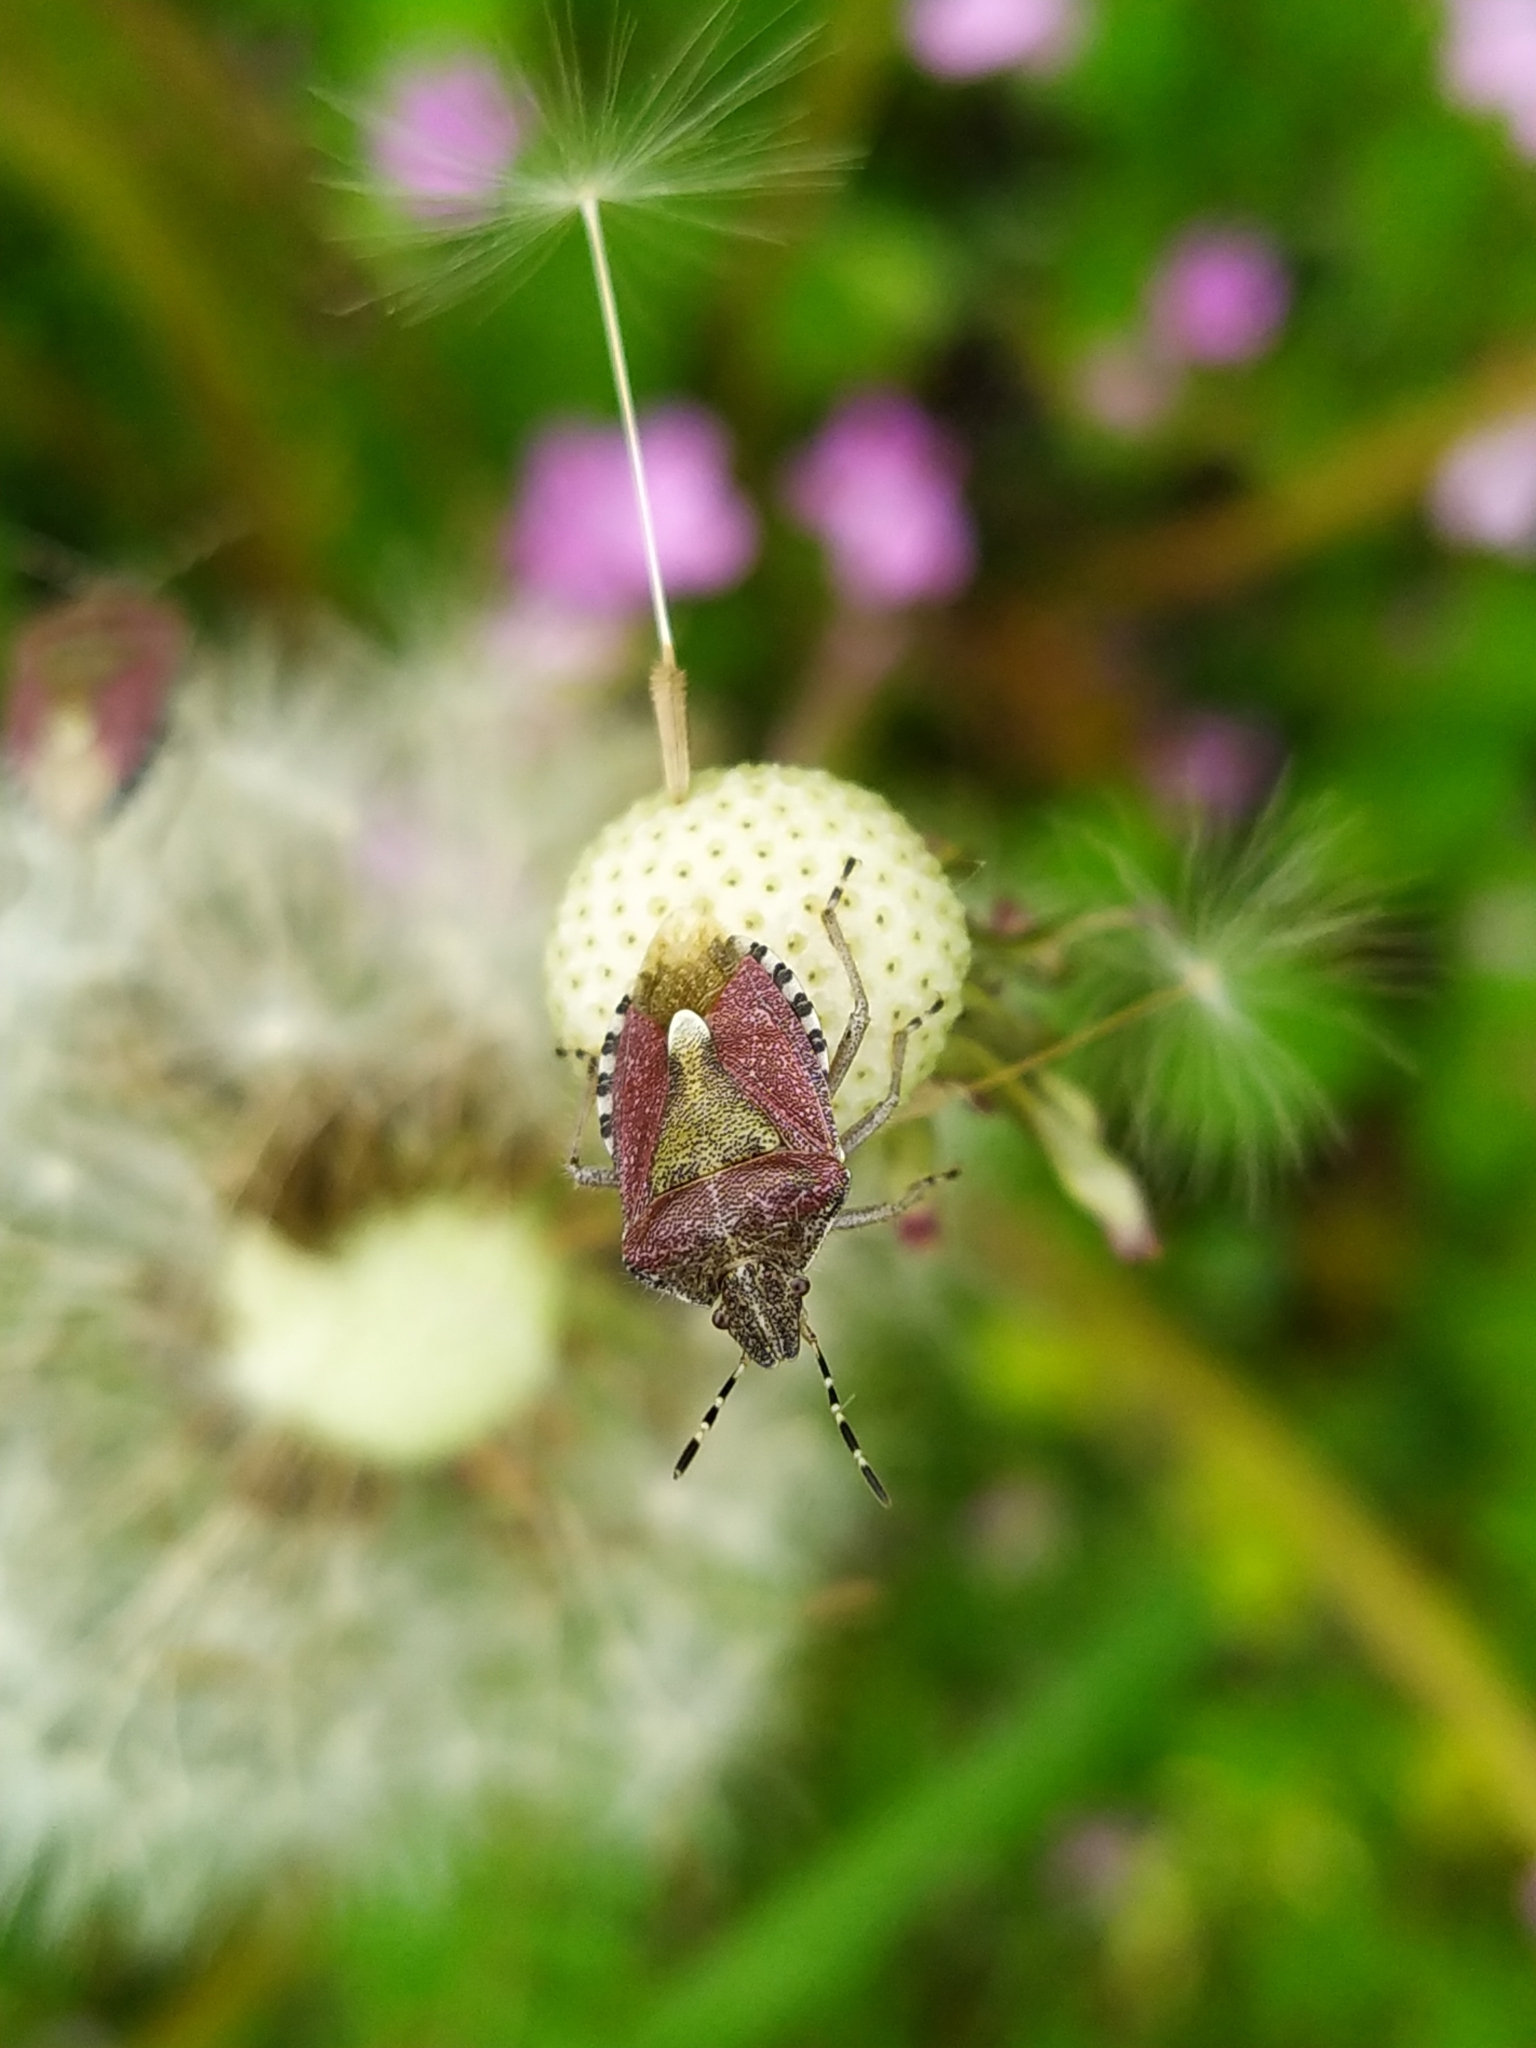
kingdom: Animalia
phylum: Arthropoda
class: Insecta
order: Hemiptera
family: Pentatomidae
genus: Dolycoris
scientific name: Dolycoris baccarum
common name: Sloe bug
